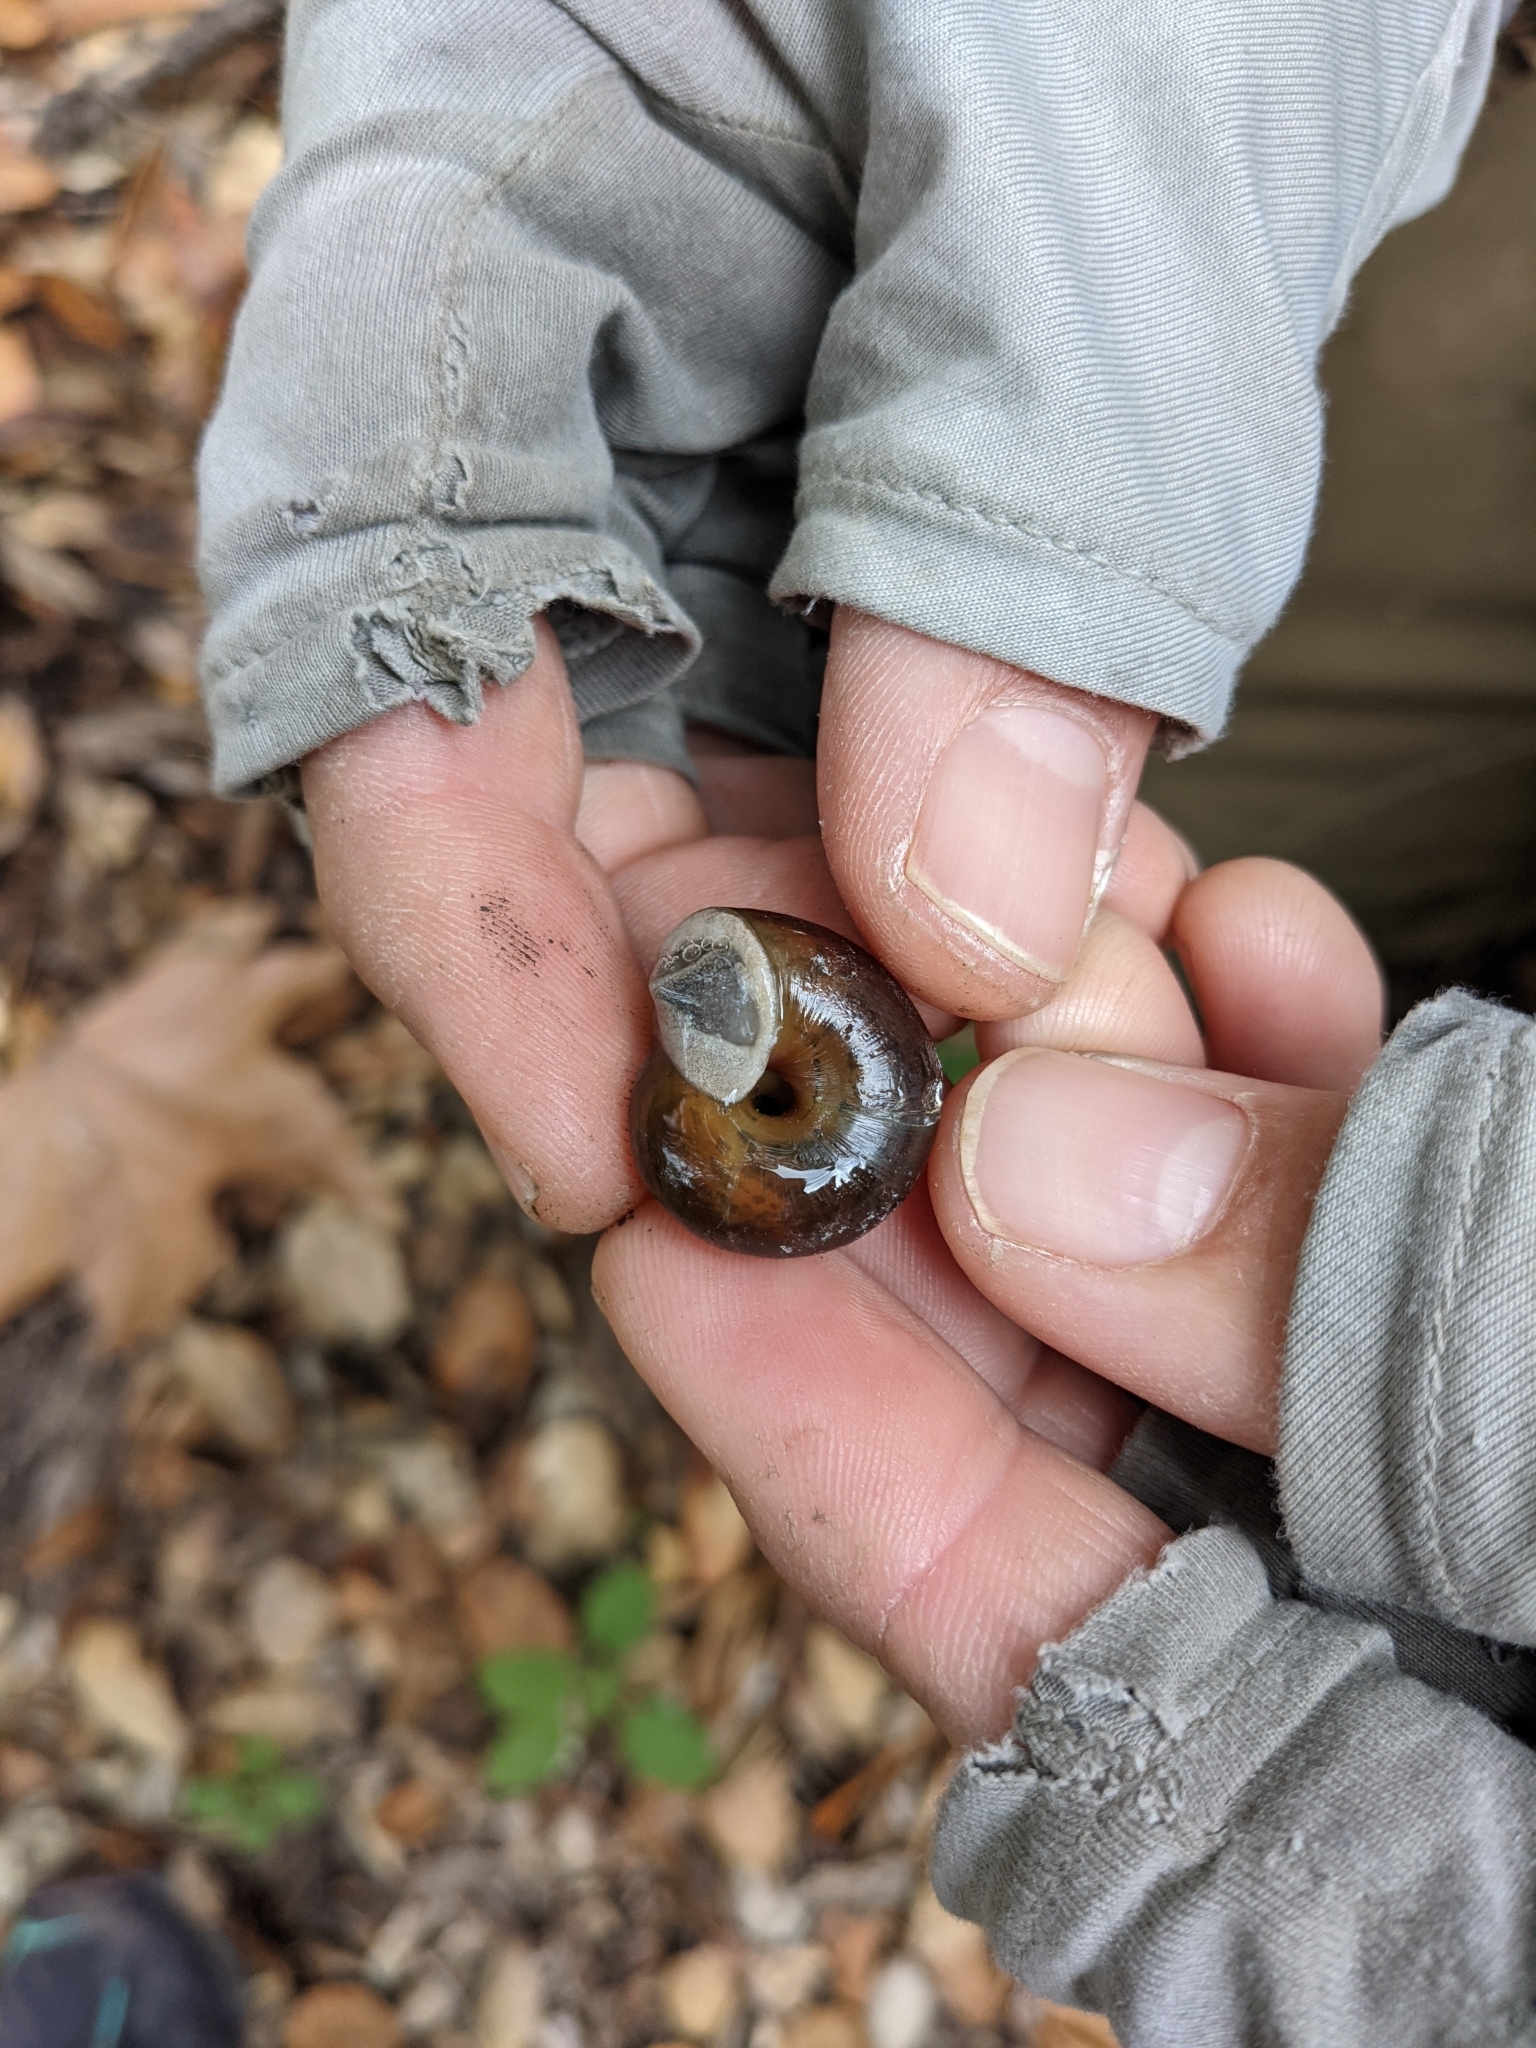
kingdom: Animalia
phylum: Mollusca
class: Gastropoda
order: Stylommatophora
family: Xanthonychidae
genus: Helminthoglypta
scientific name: Helminthoglypta umbilicata
